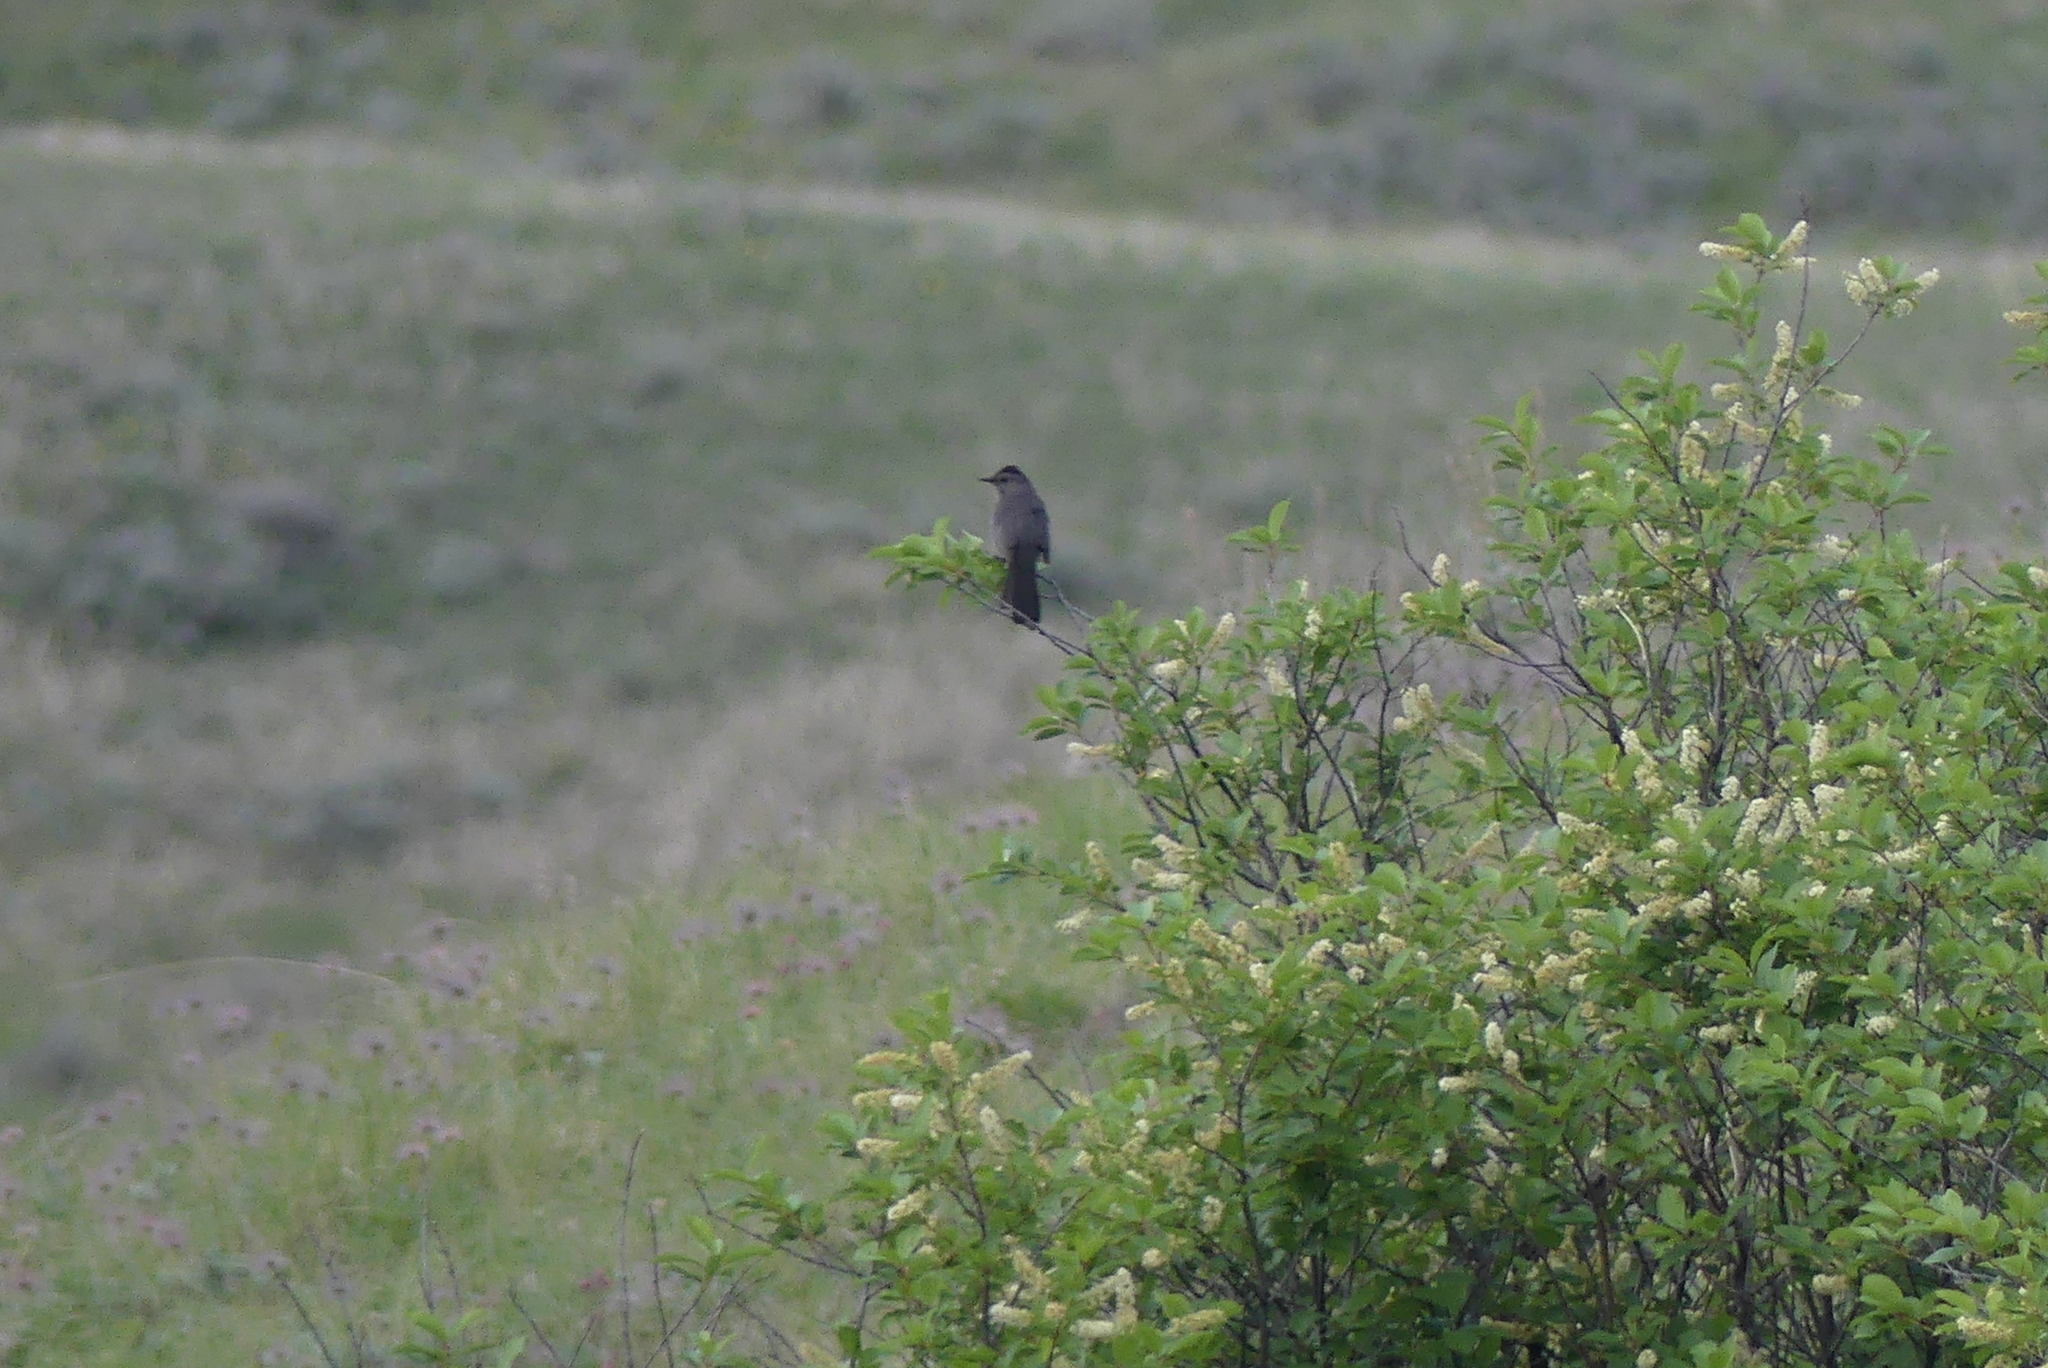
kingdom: Animalia
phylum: Chordata
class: Aves
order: Passeriformes
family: Mimidae
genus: Dumetella
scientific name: Dumetella carolinensis
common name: Gray catbird
